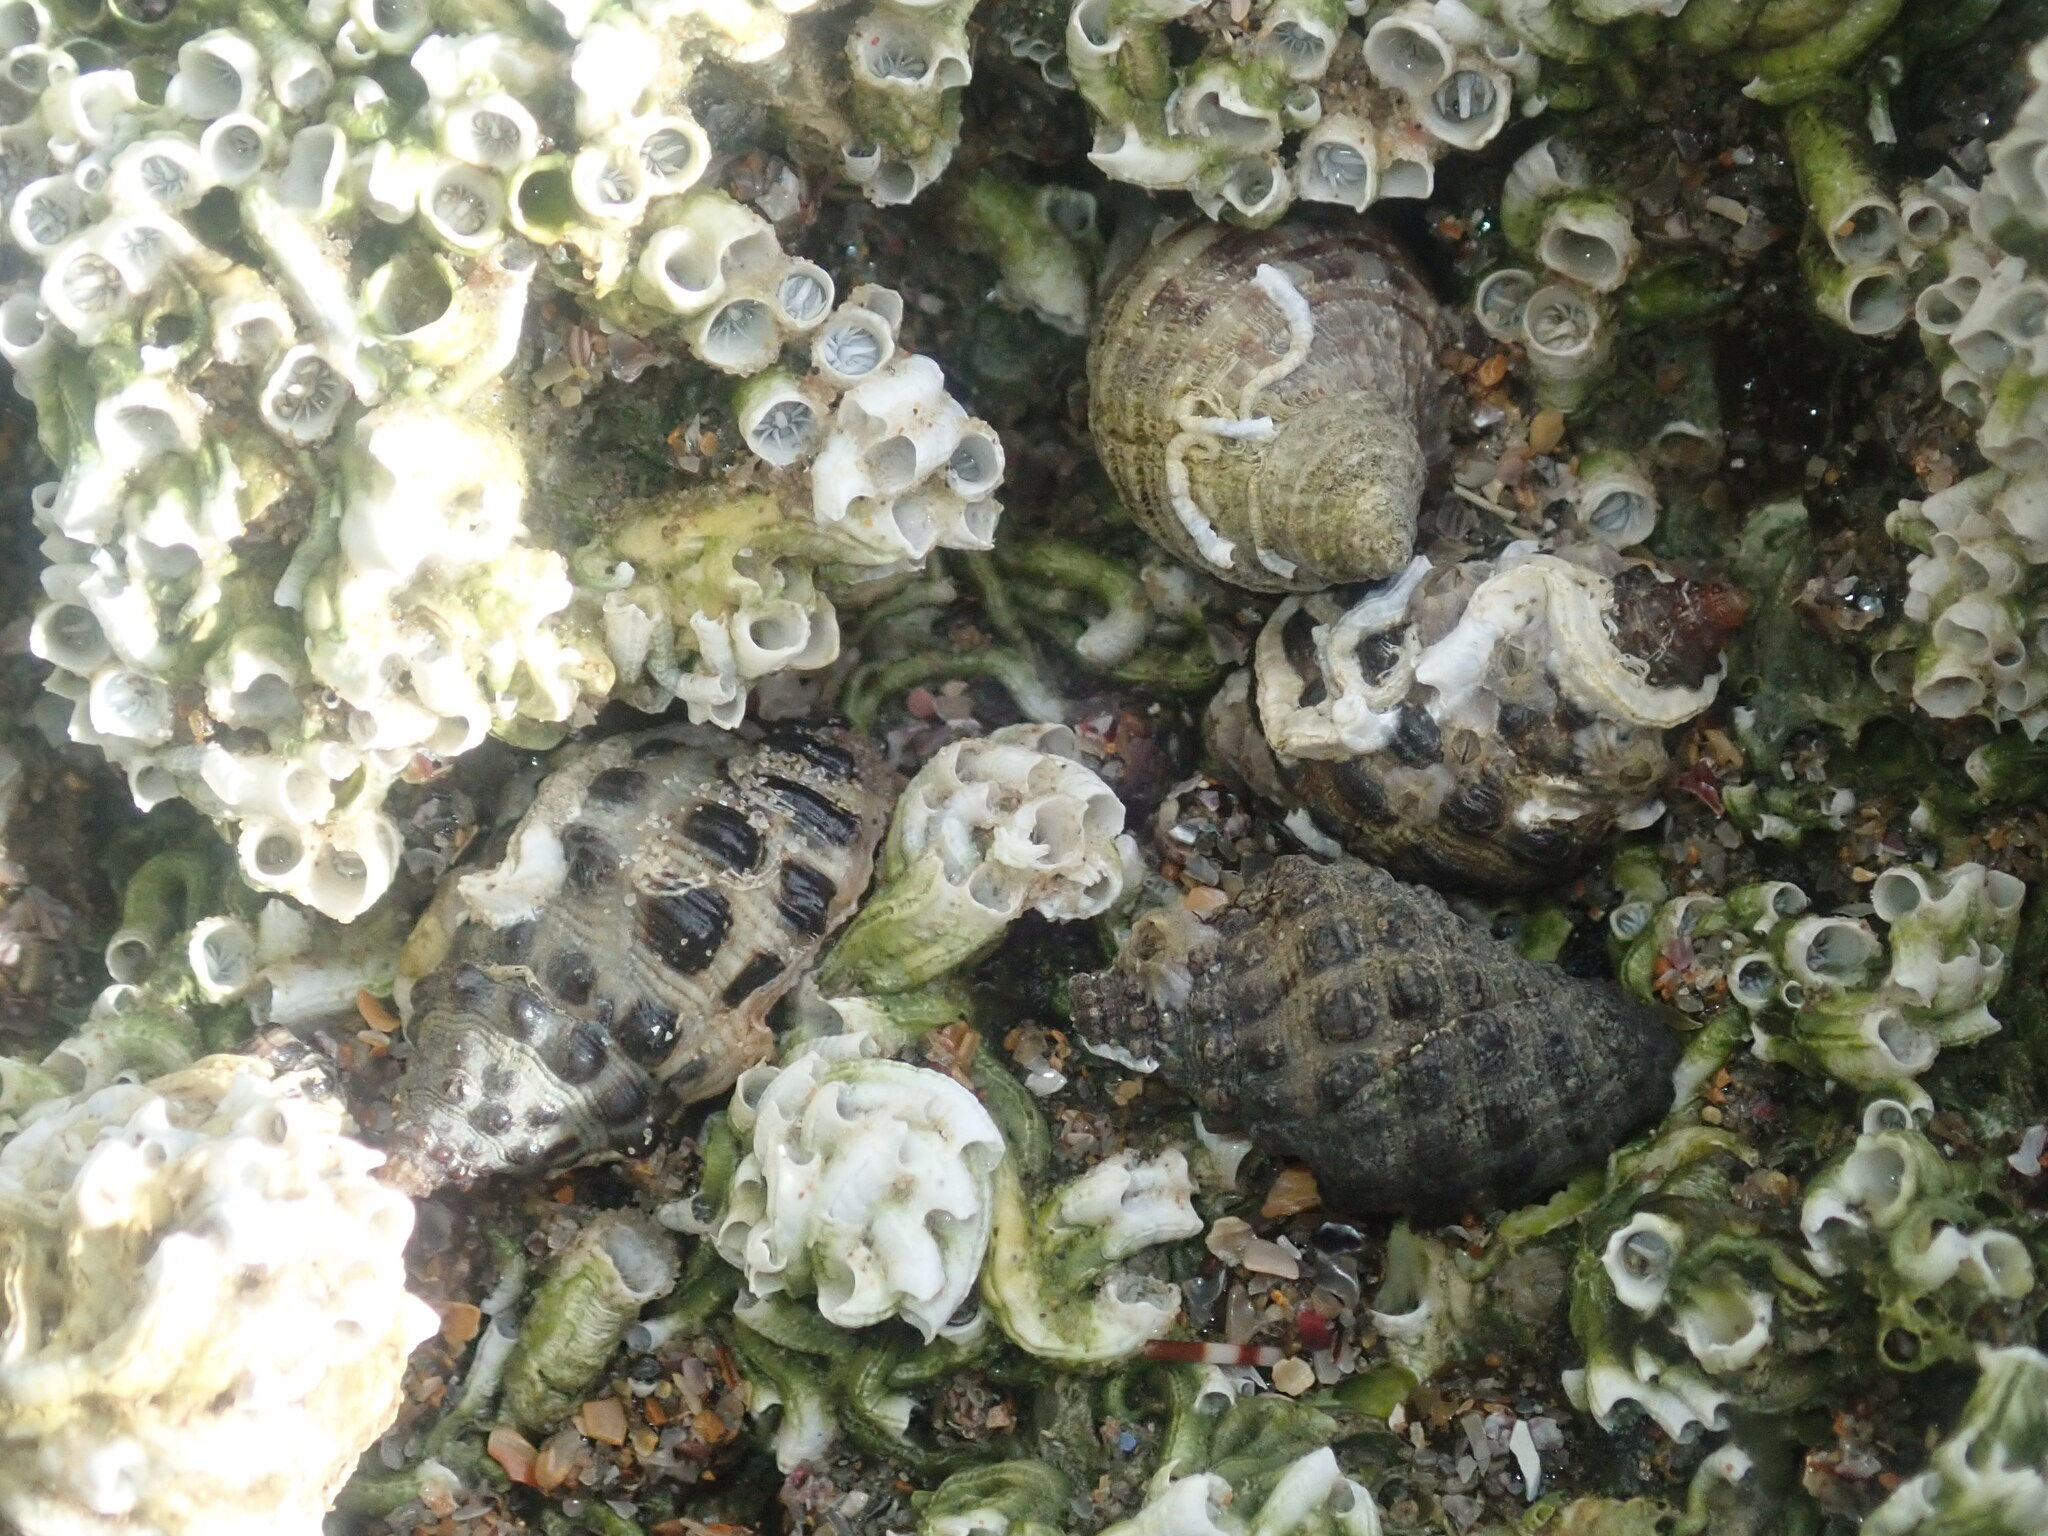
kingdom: Animalia
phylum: Mollusca
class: Gastropoda
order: Neogastropoda
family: Muricidae
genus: Tenguella
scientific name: Tenguella marginalba
